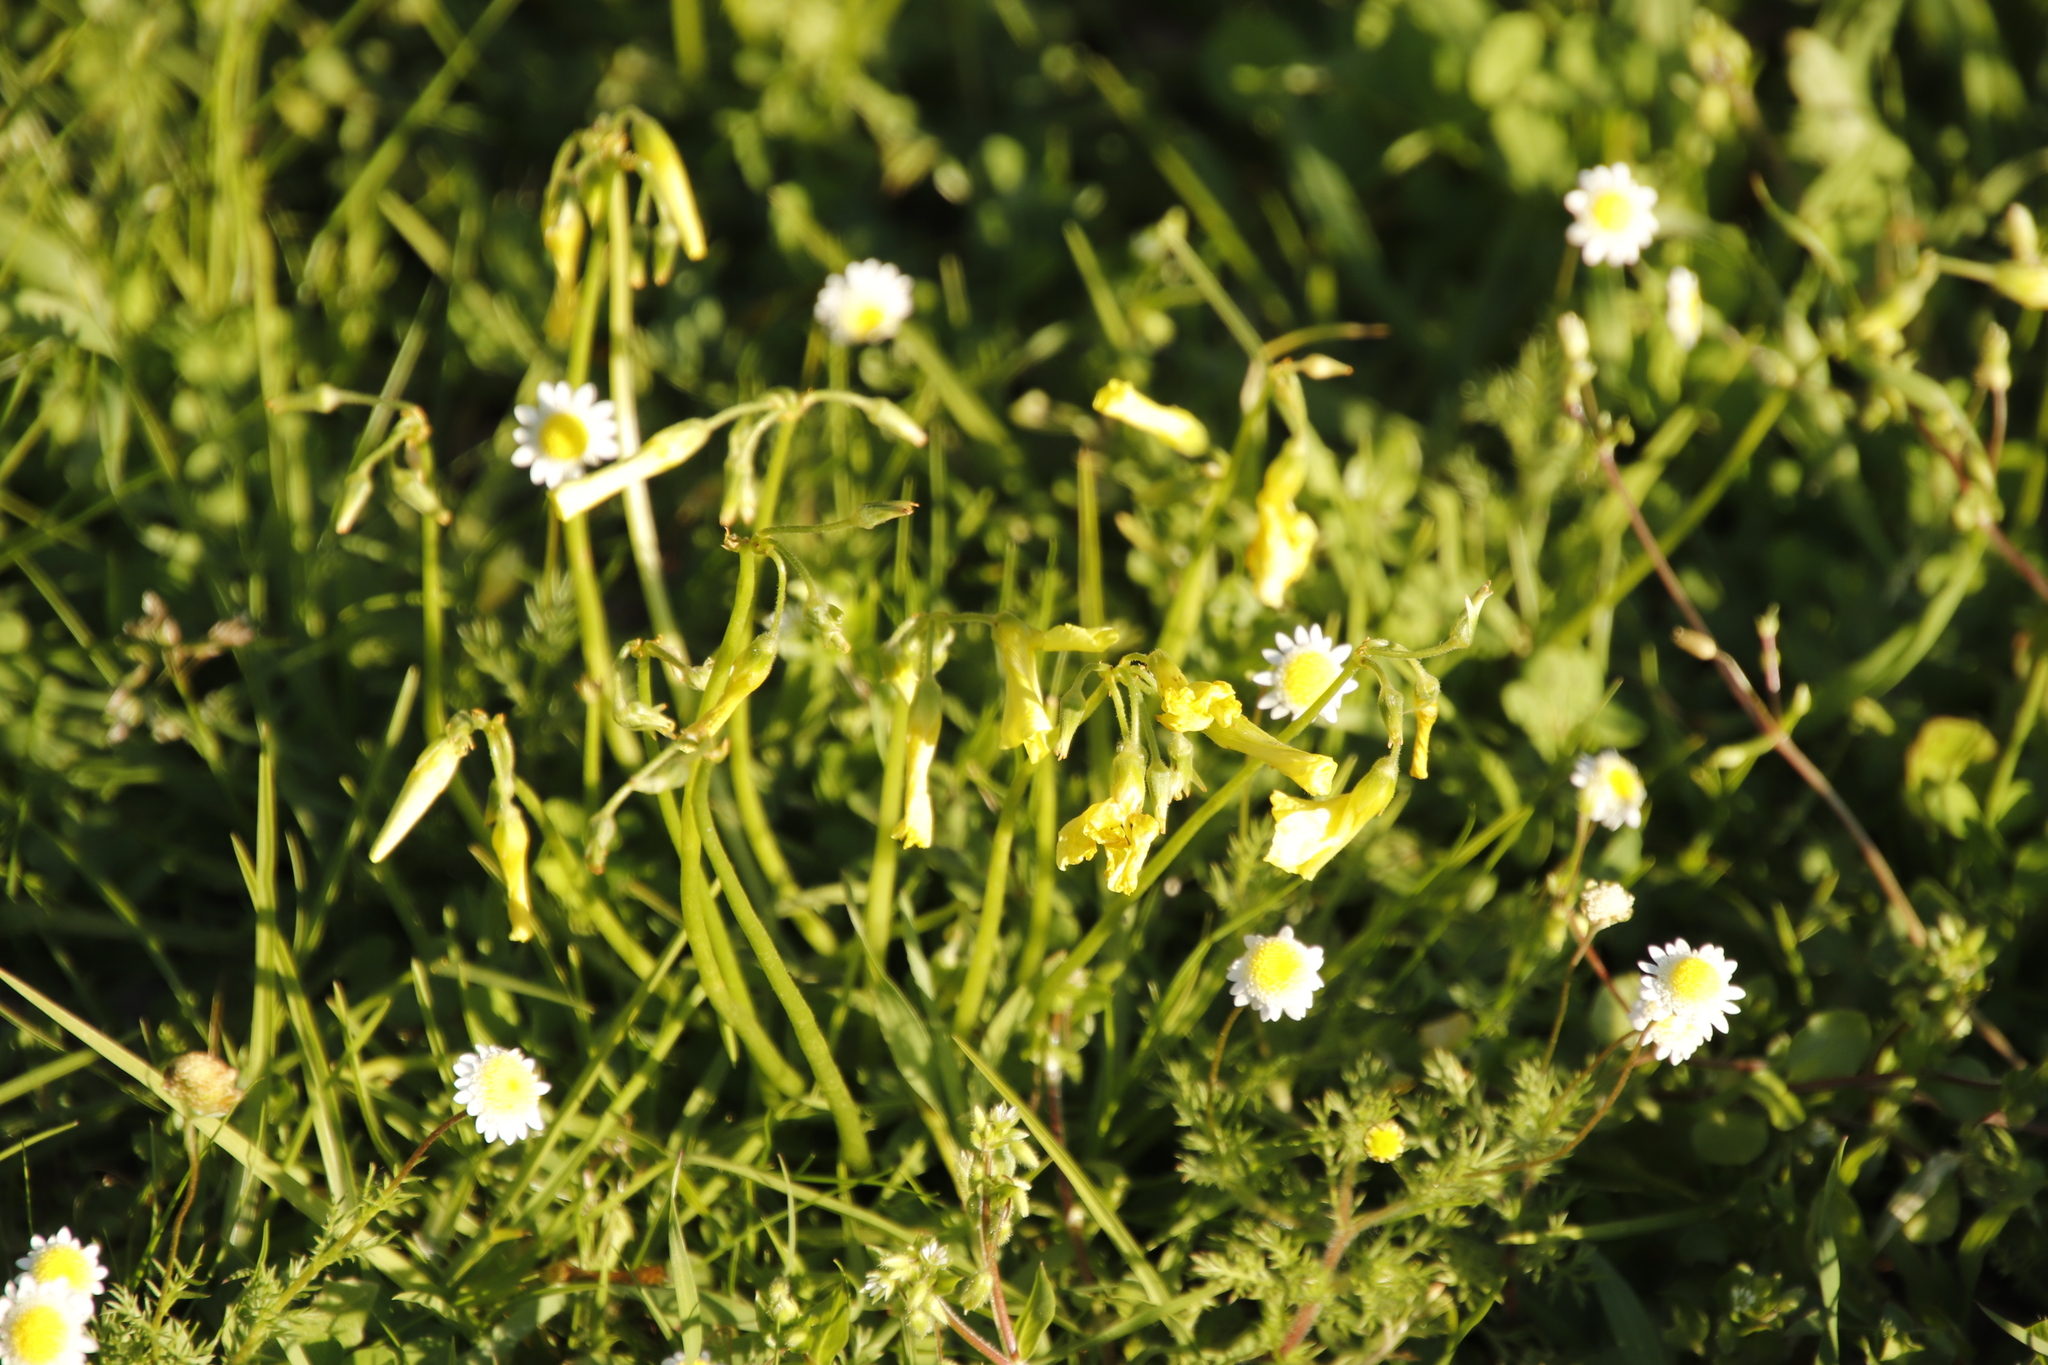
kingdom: Plantae
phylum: Tracheophyta
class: Magnoliopsida
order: Asterales
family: Asteraceae
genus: Cotula
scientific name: Cotula turbinata
